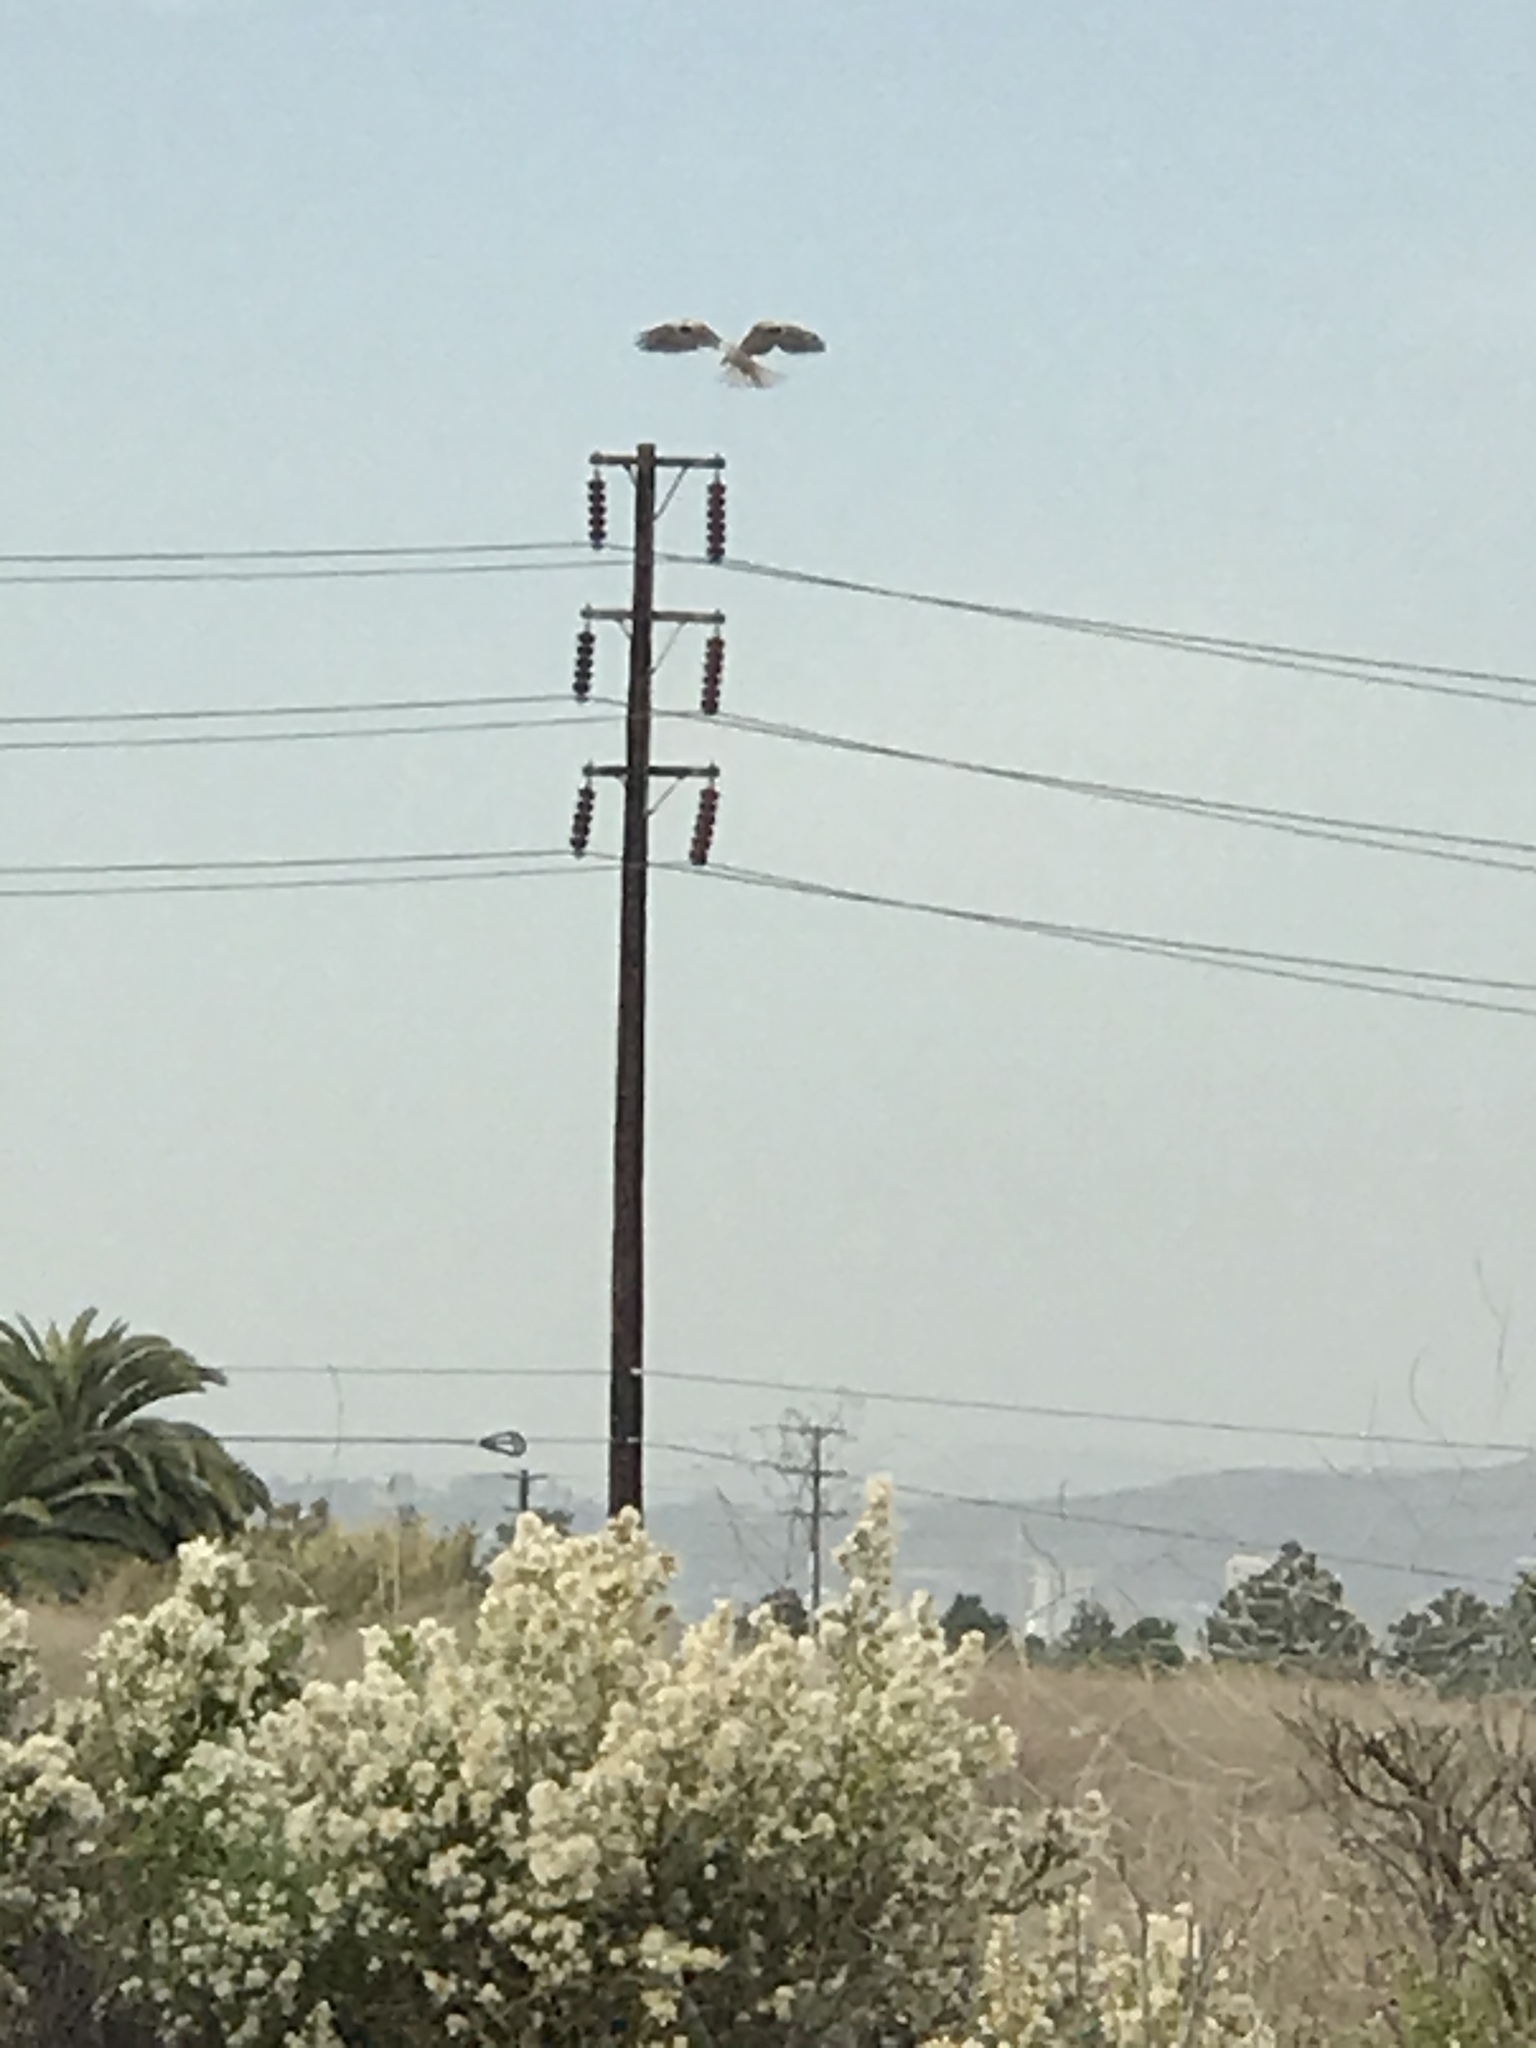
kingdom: Animalia
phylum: Chordata
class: Aves
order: Accipitriformes
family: Accipitridae
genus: Elanus
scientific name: Elanus leucurus
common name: White-tailed kite
